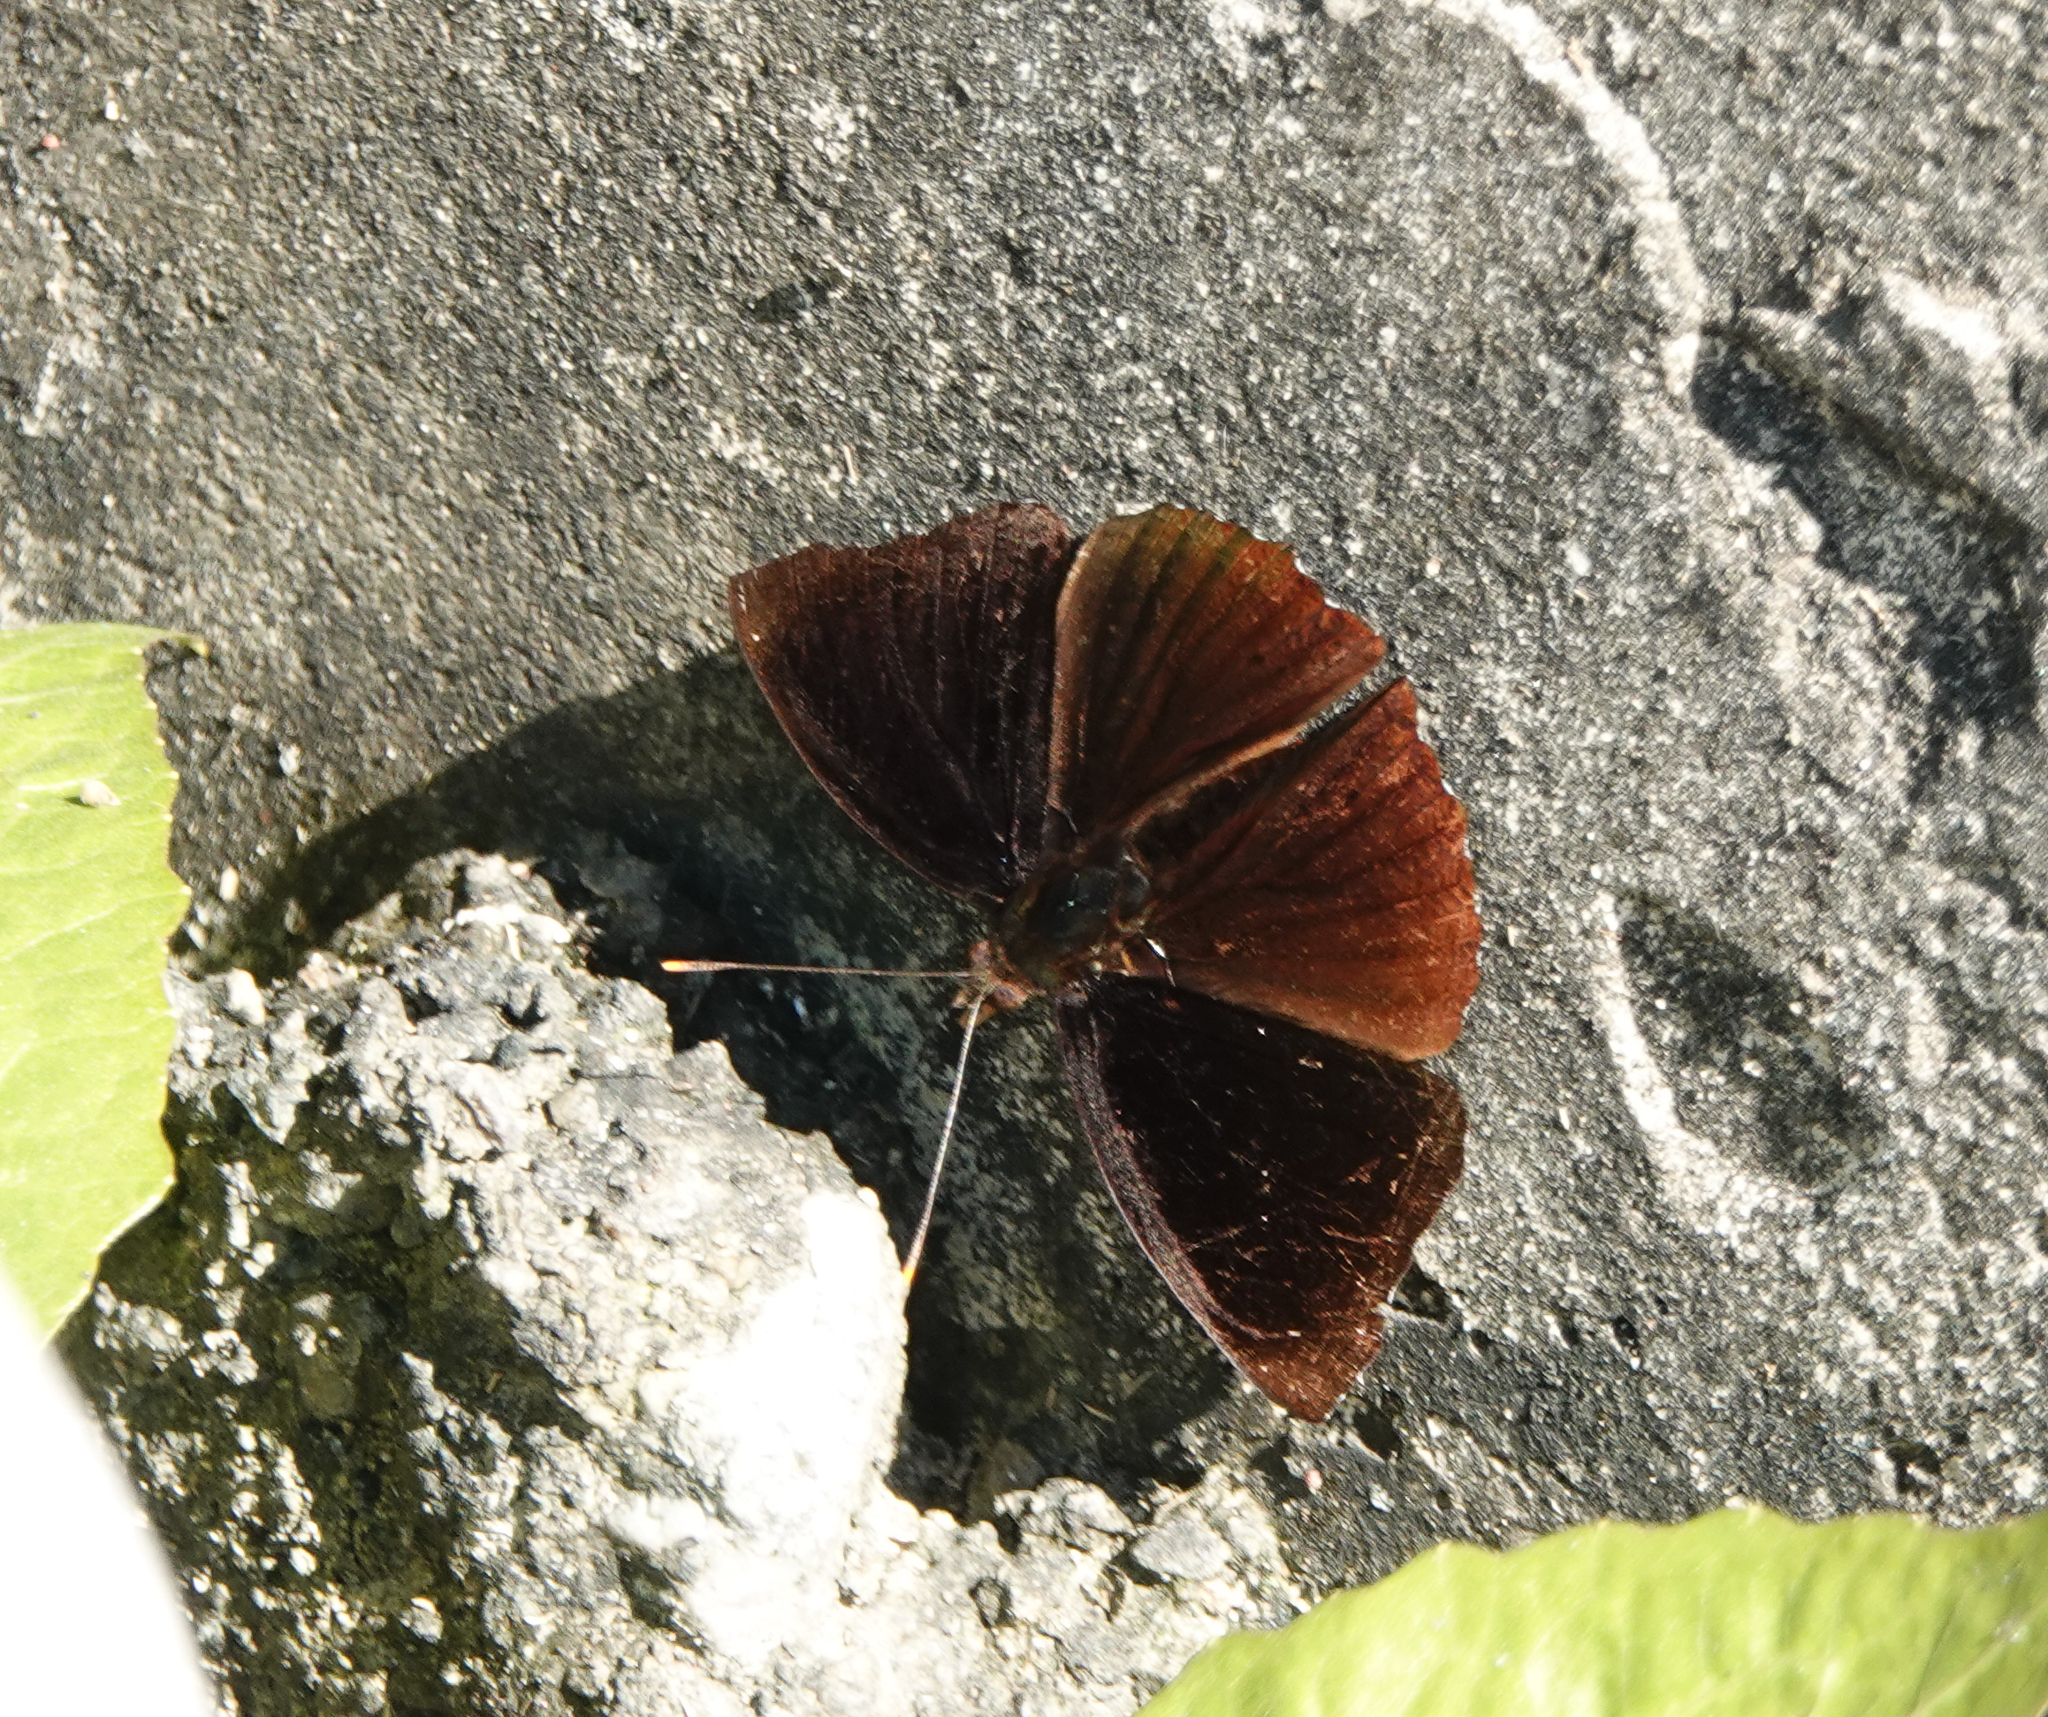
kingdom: Animalia
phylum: Arthropoda
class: Insecta
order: Lepidoptera
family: Nymphalidae
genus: Apatura
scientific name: Apatura Rohana spec
